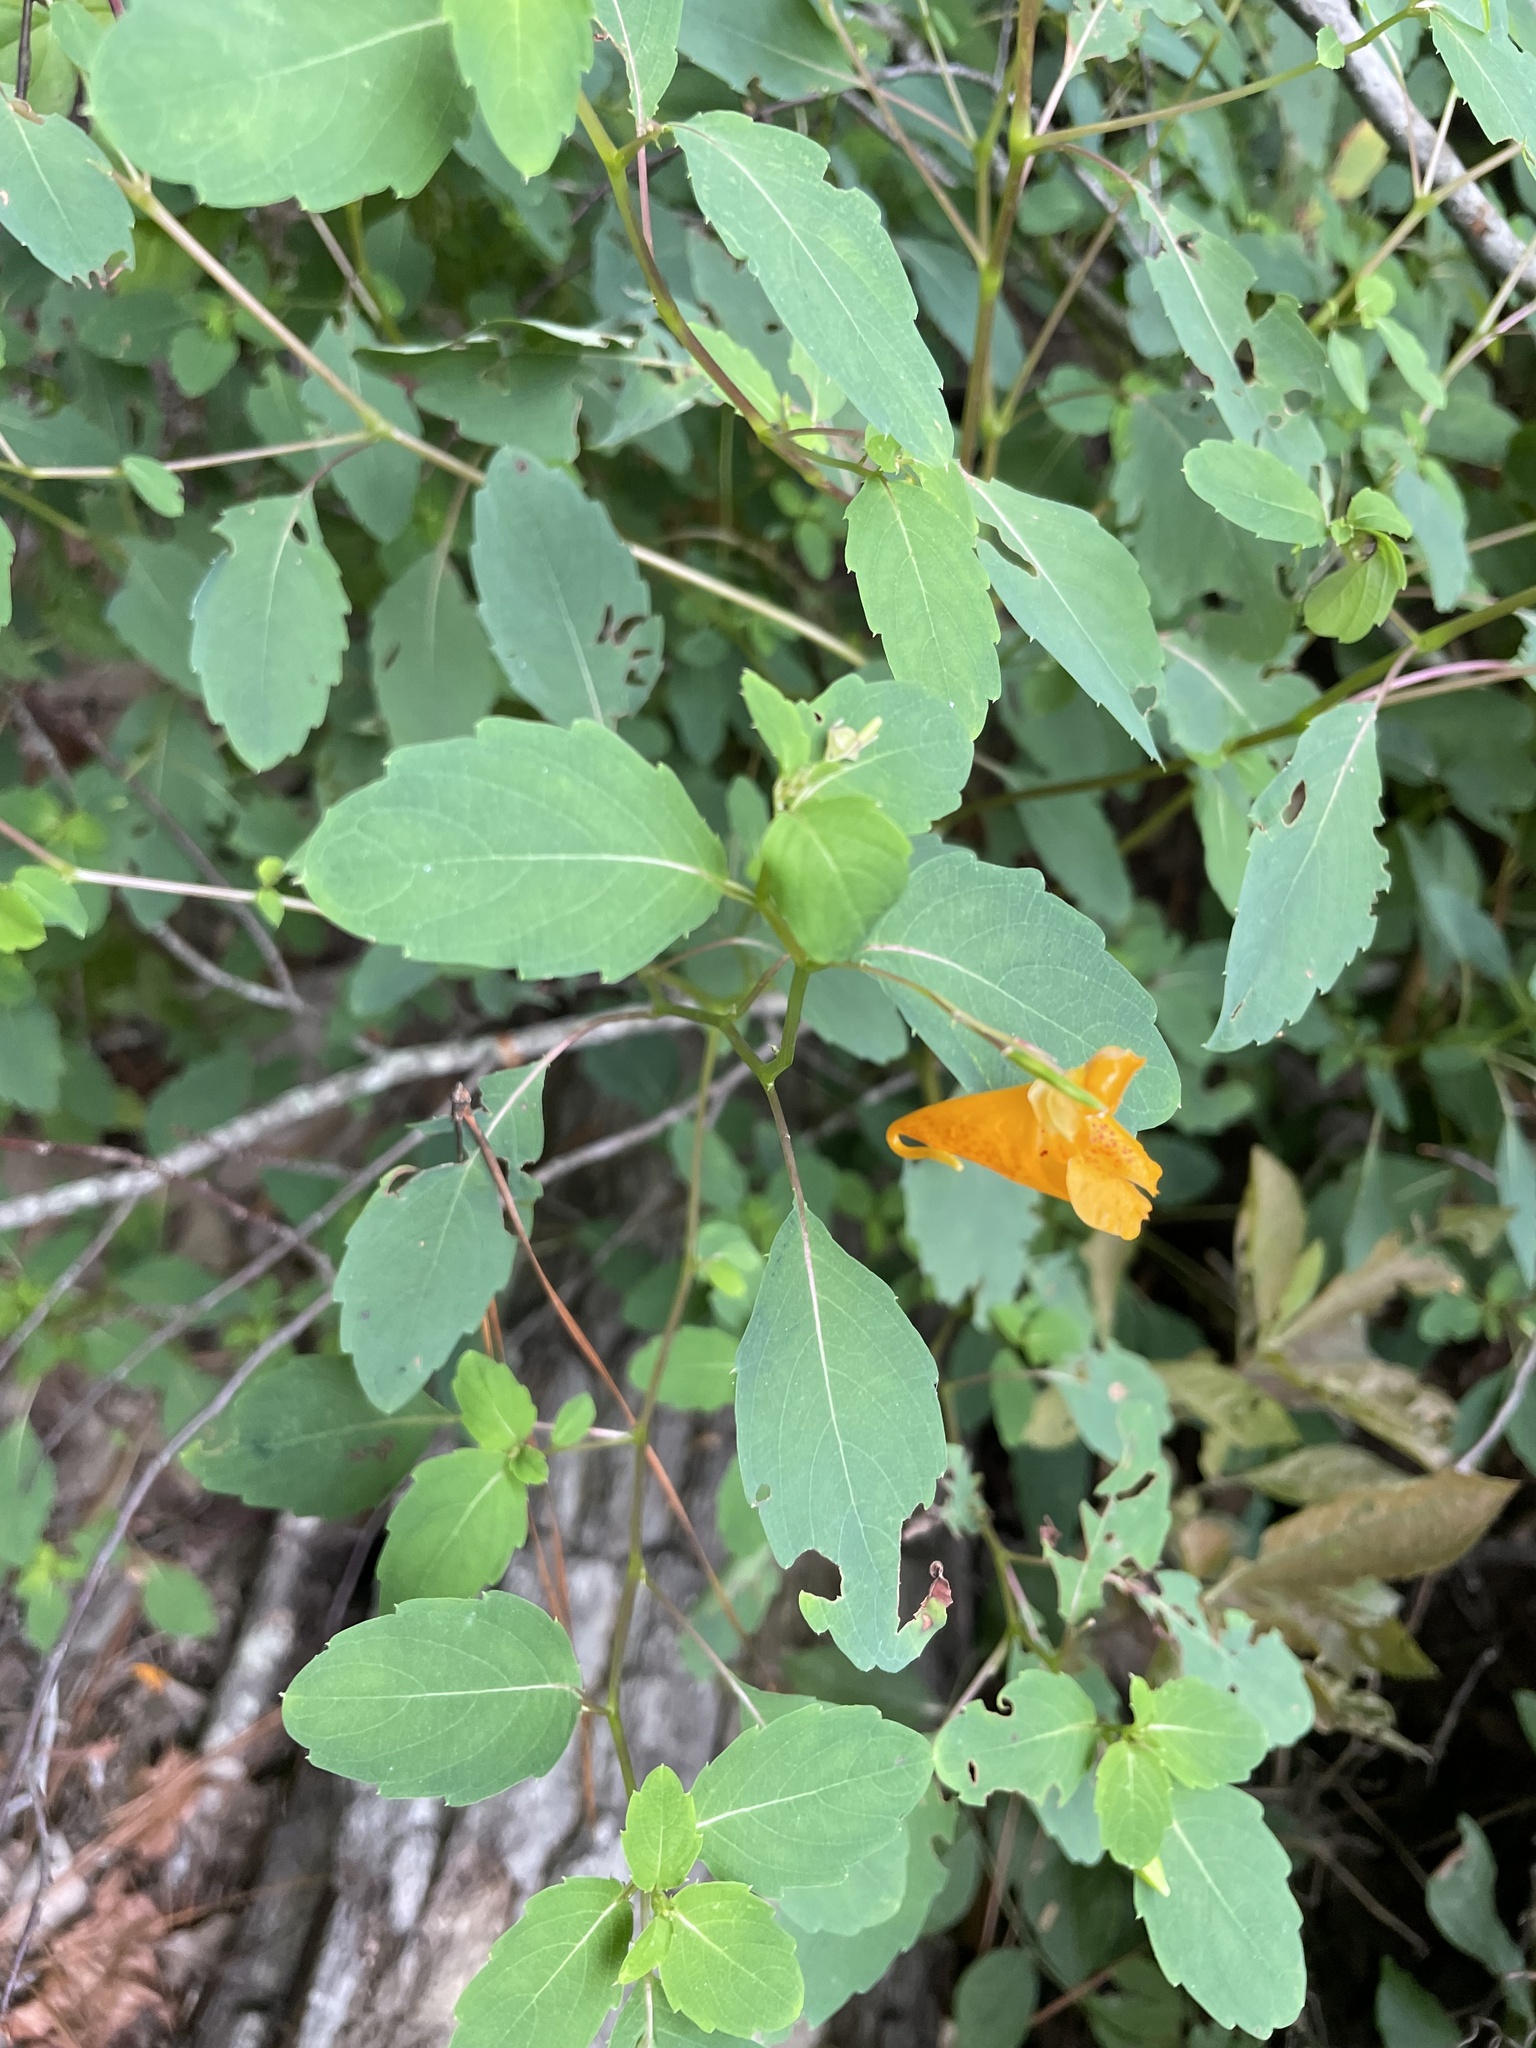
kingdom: Plantae
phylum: Tracheophyta
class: Magnoliopsida
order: Ericales
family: Balsaminaceae
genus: Impatiens
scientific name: Impatiens capensis
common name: Orange balsam
